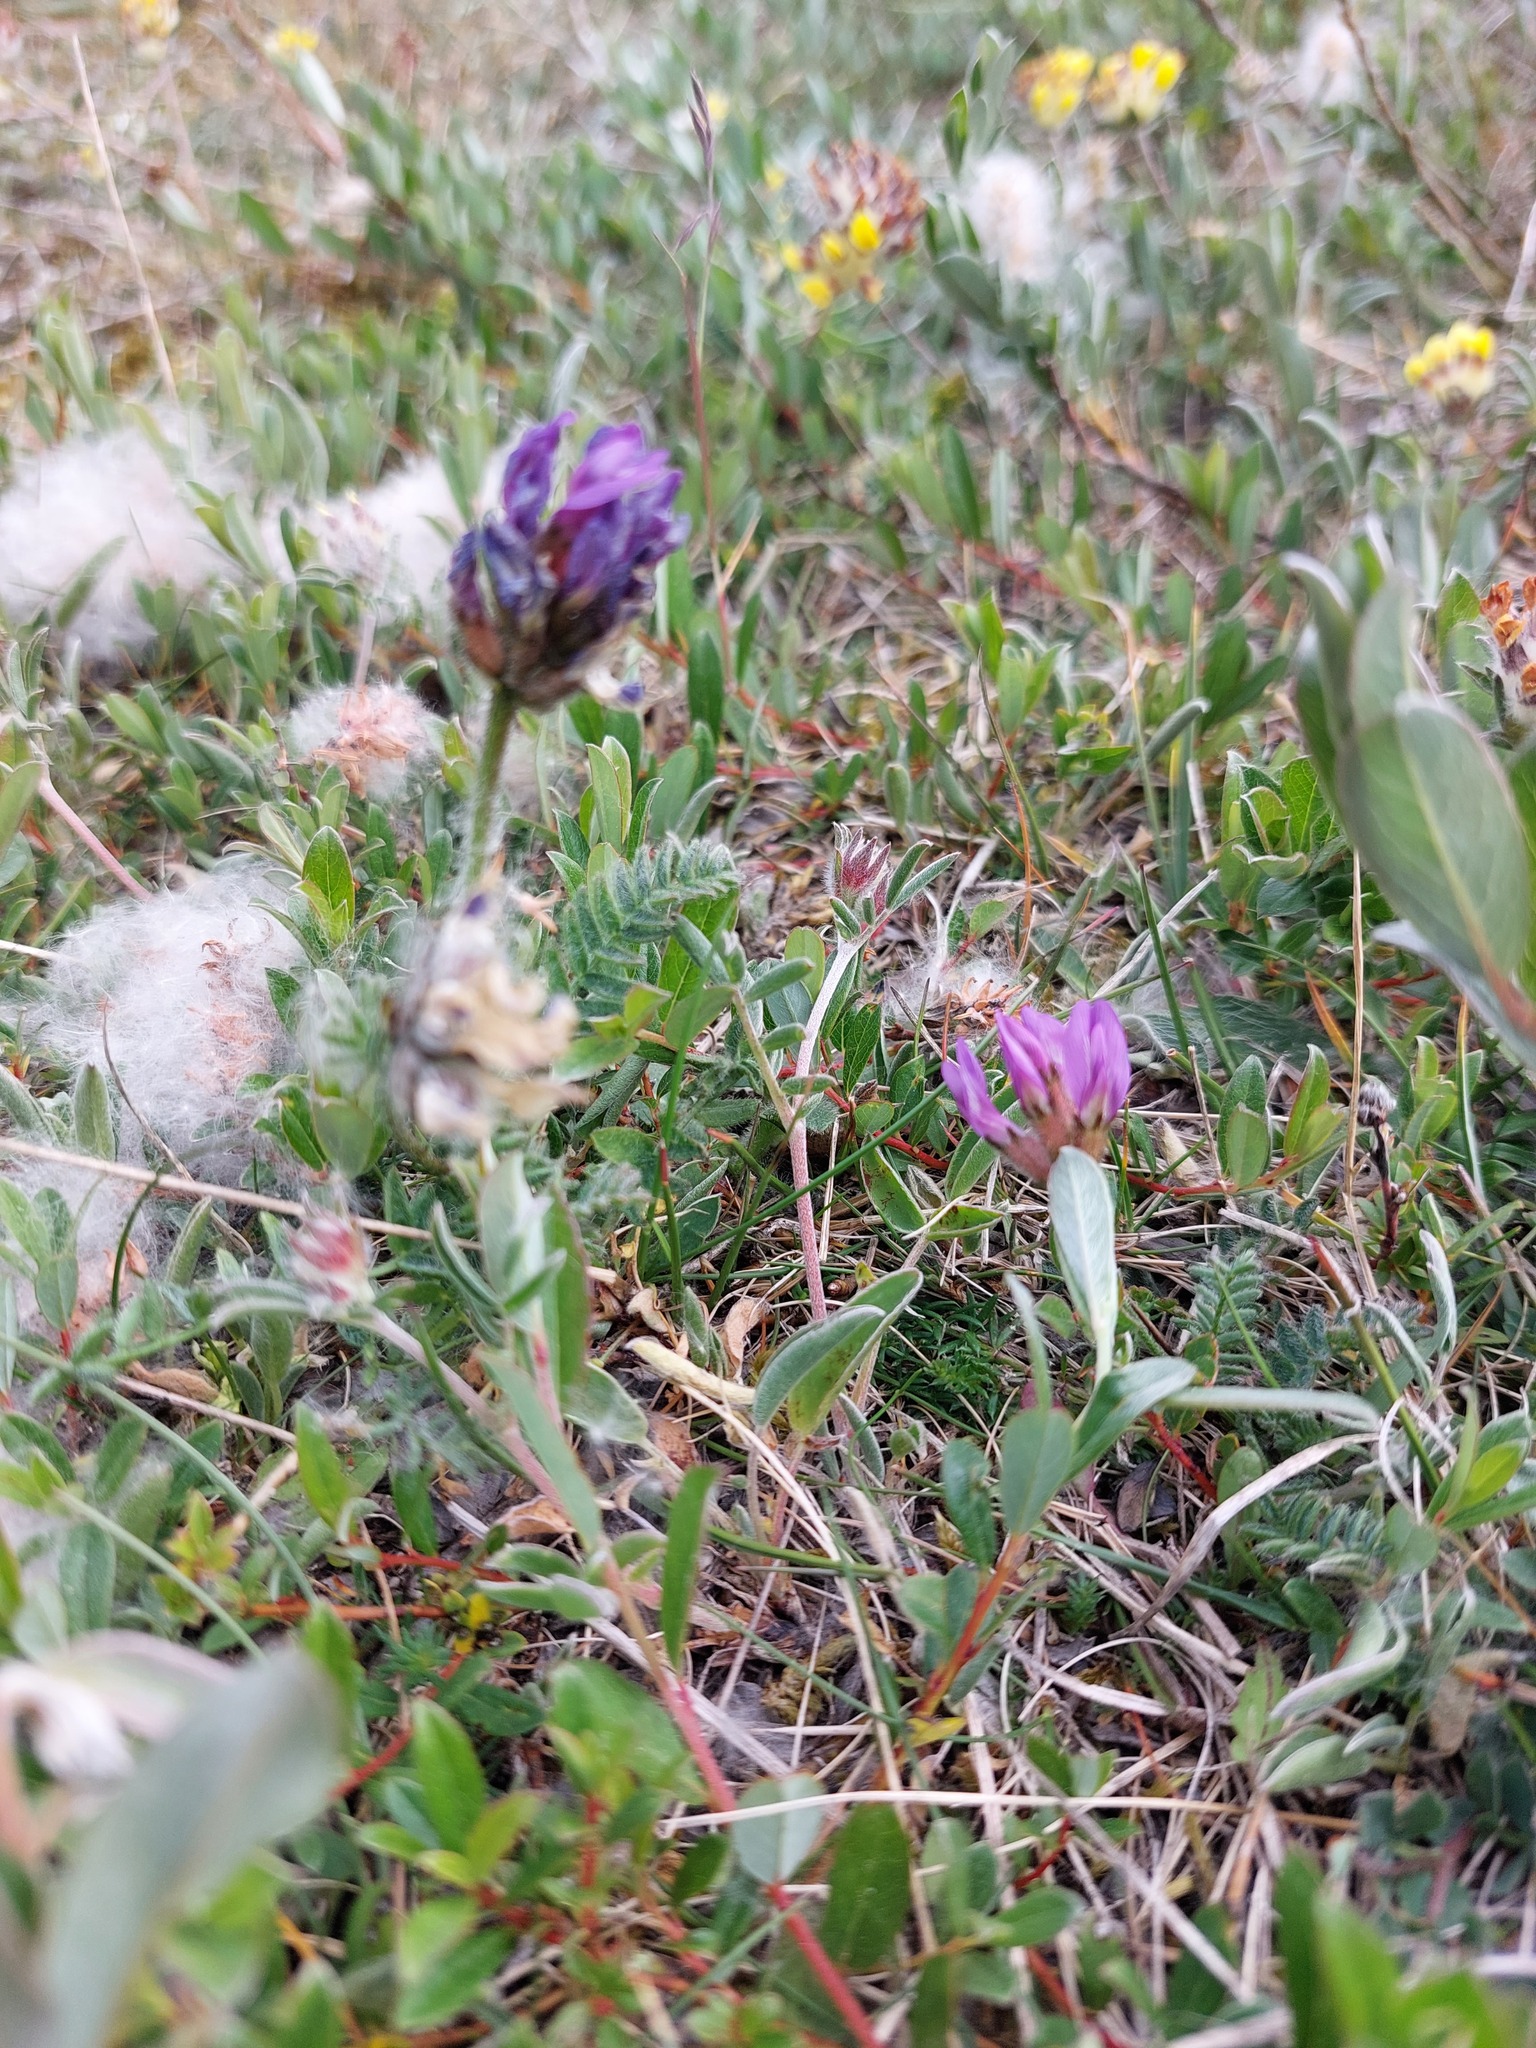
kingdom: Plantae
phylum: Tracheophyta
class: Magnoliopsida
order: Fabales
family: Fabaceae
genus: Astragalus
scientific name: Astragalus danicus
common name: Purple milk-vetch
